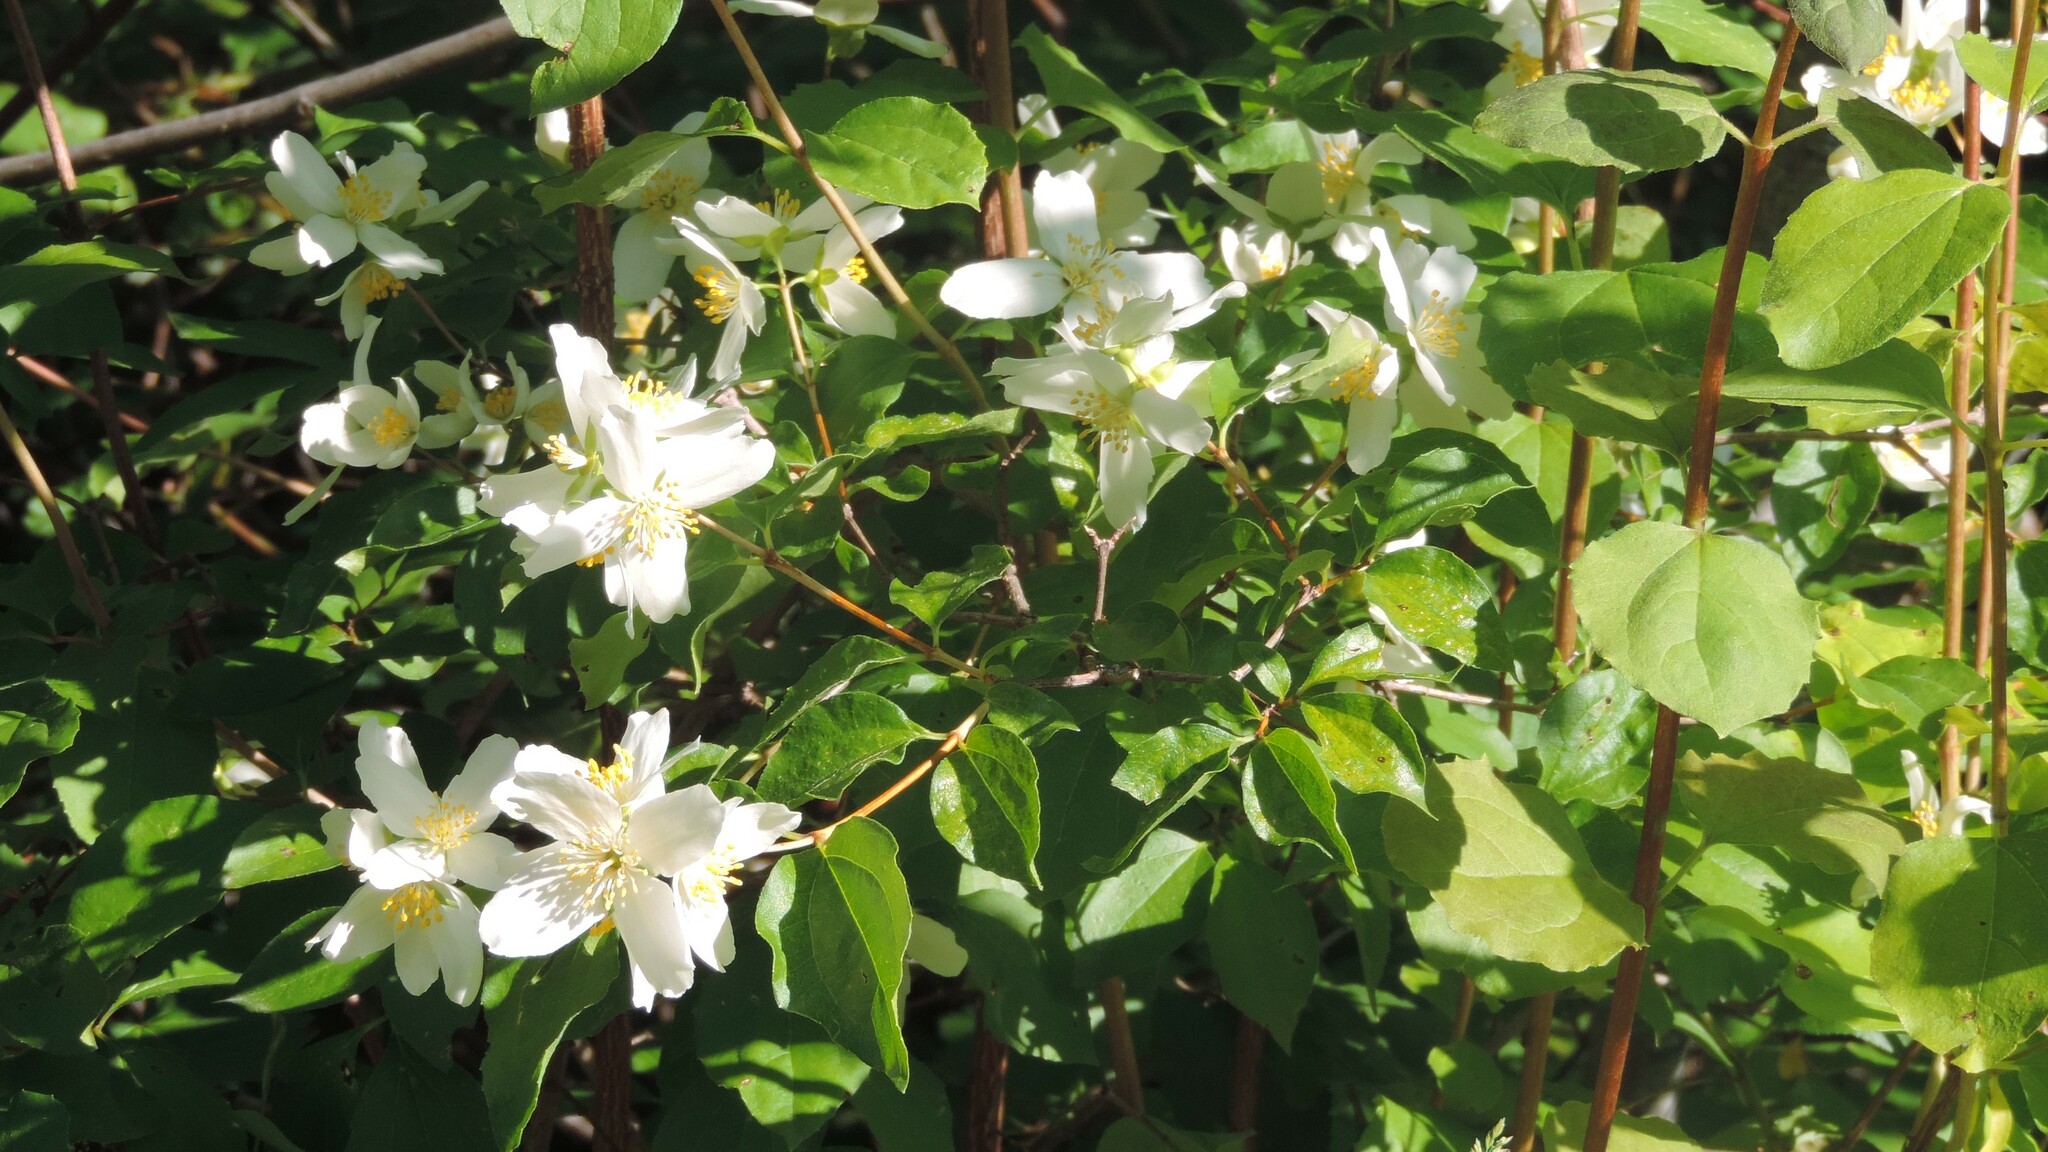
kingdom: Plantae
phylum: Tracheophyta
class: Magnoliopsida
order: Cornales
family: Hydrangeaceae
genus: Philadelphus
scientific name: Philadelphus lewisii
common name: Lewis's mock orange
